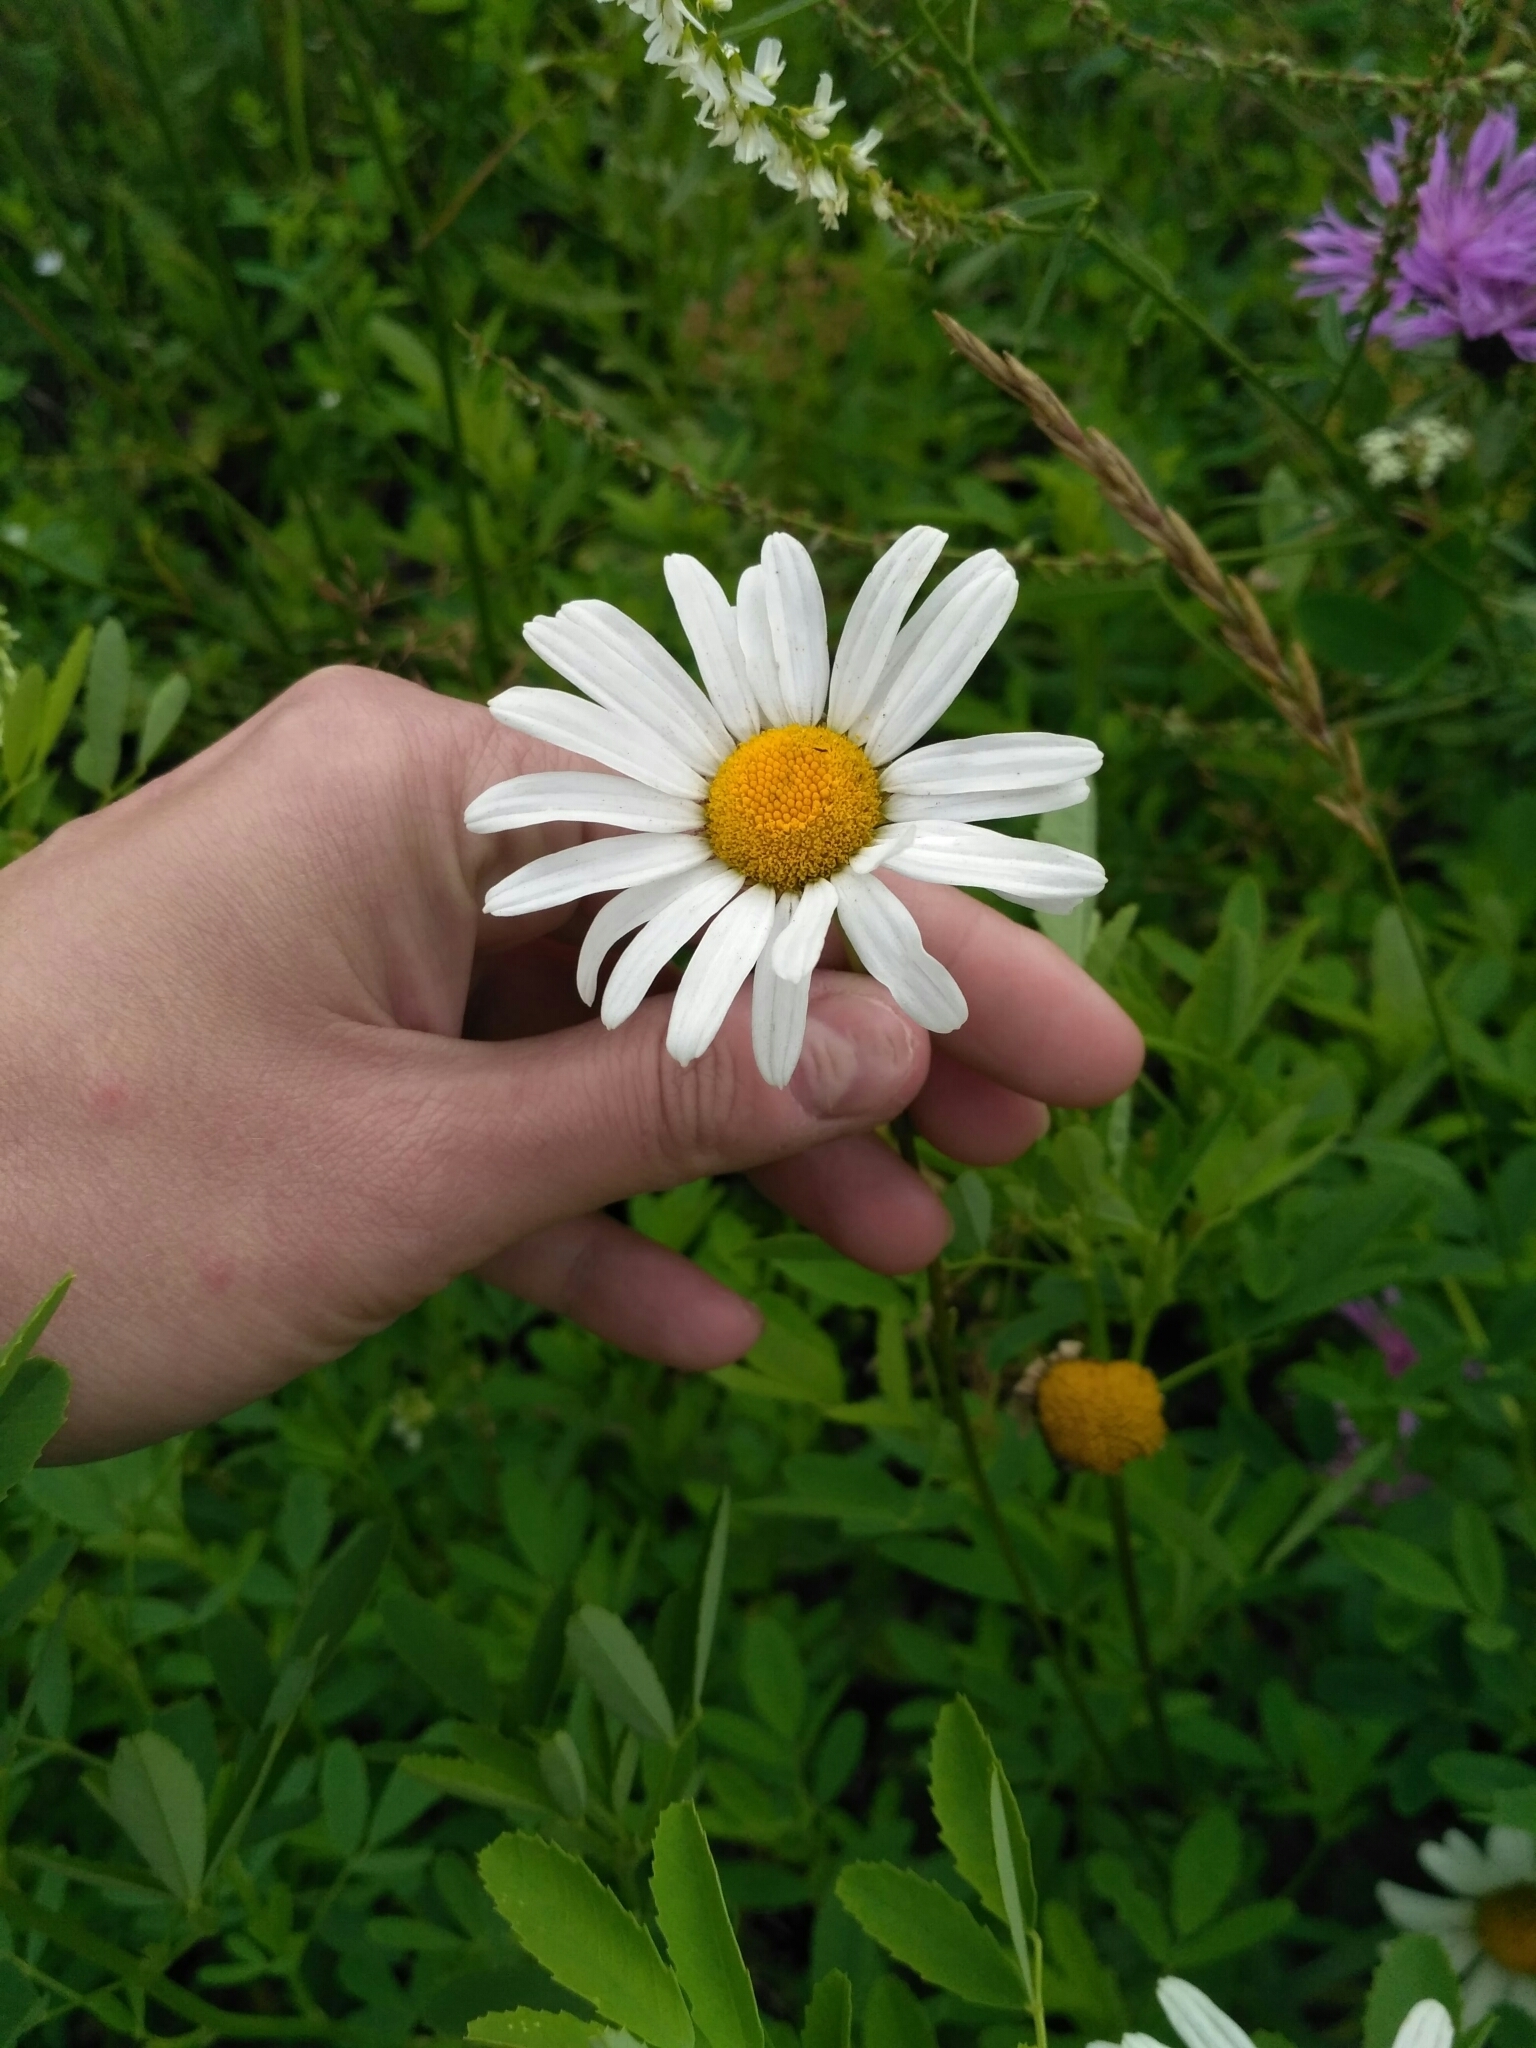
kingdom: Plantae
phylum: Tracheophyta
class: Magnoliopsida
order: Asterales
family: Asteraceae
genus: Leucanthemum
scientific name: Leucanthemum vulgare
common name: Oxeye daisy
